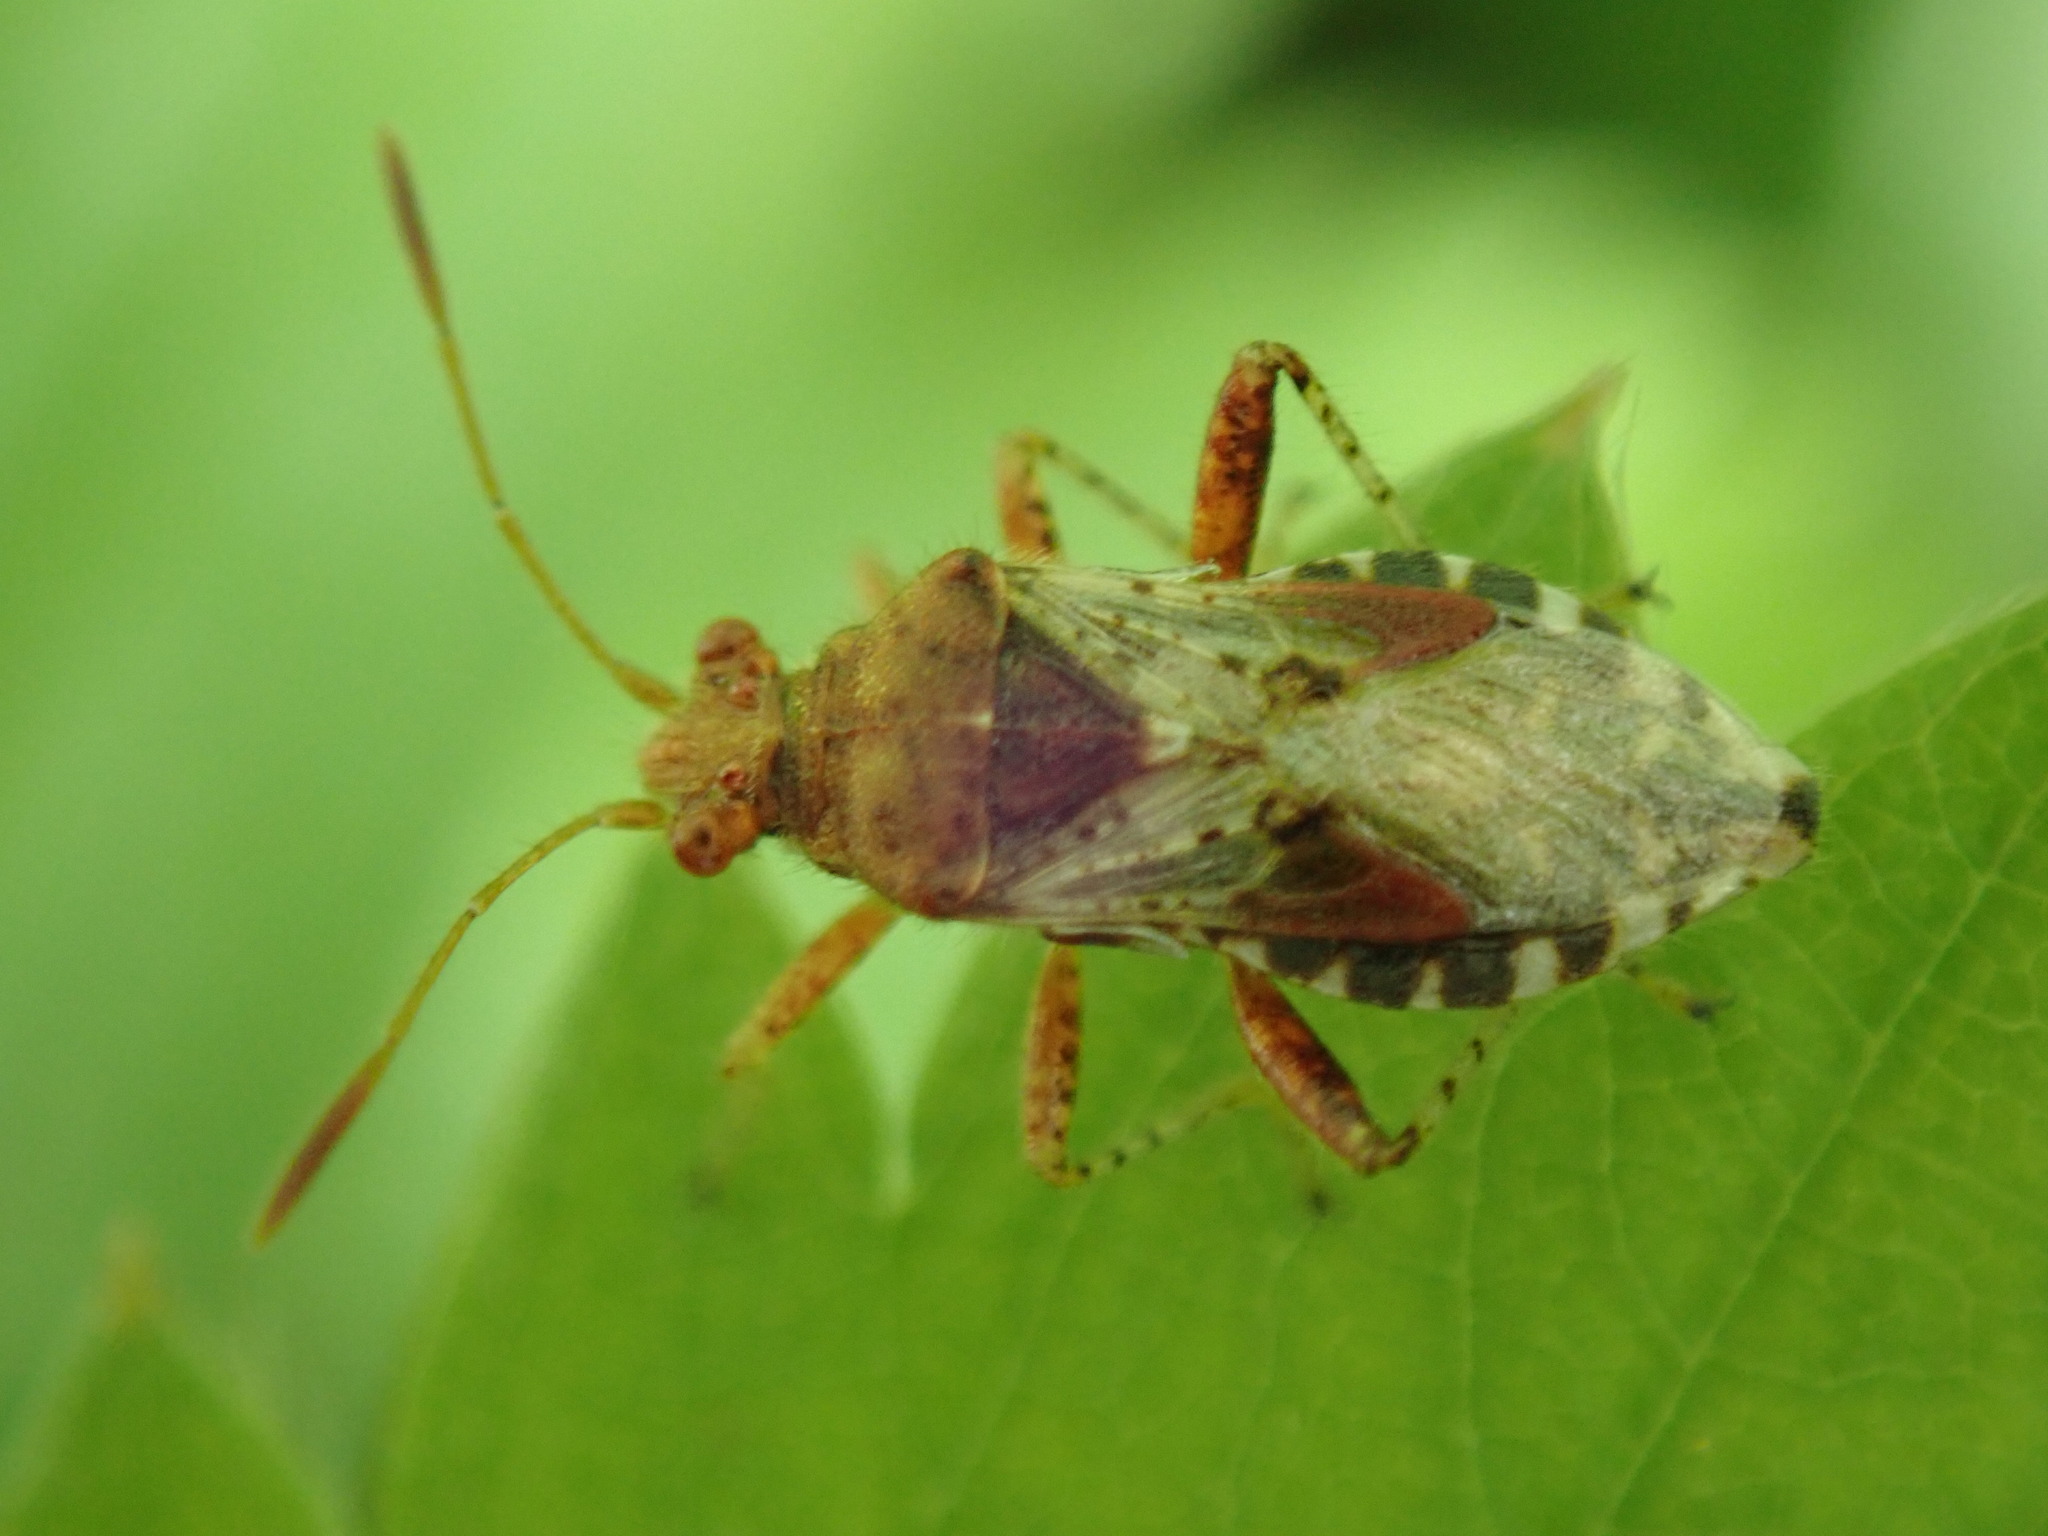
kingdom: Animalia
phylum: Arthropoda
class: Insecta
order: Hemiptera
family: Rhopalidae
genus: Rhopalus
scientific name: Rhopalus subrufus
